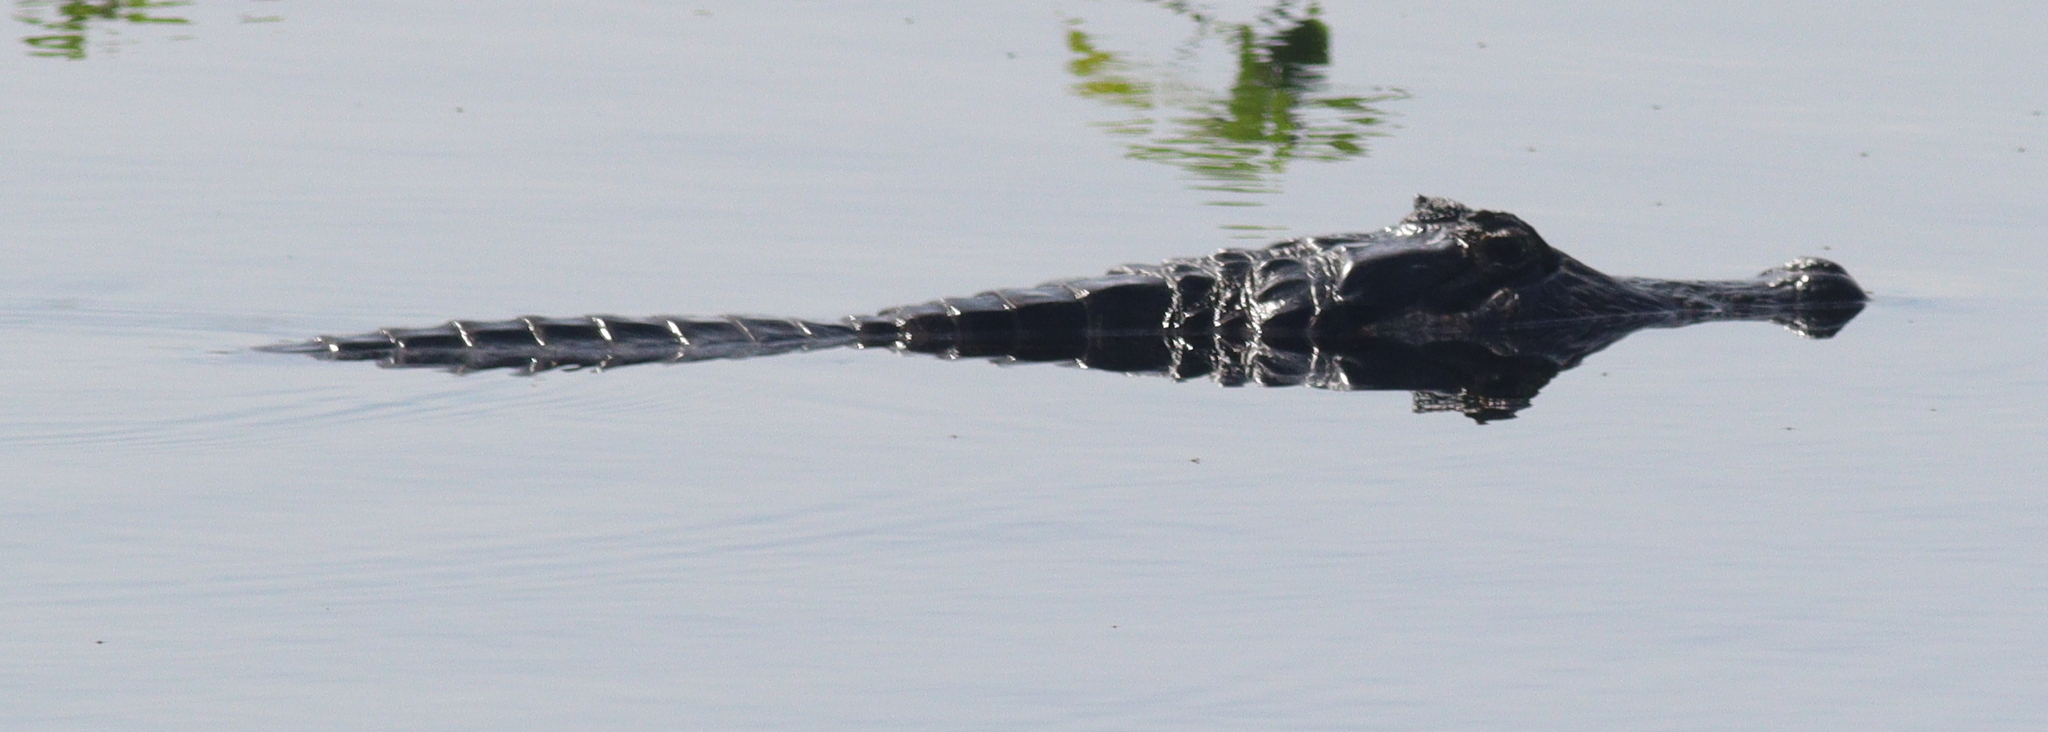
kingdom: Animalia
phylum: Chordata
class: Crocodylia
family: Alligatoridae
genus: Caiman
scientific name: Caiman yacare
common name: Yacare caiman
